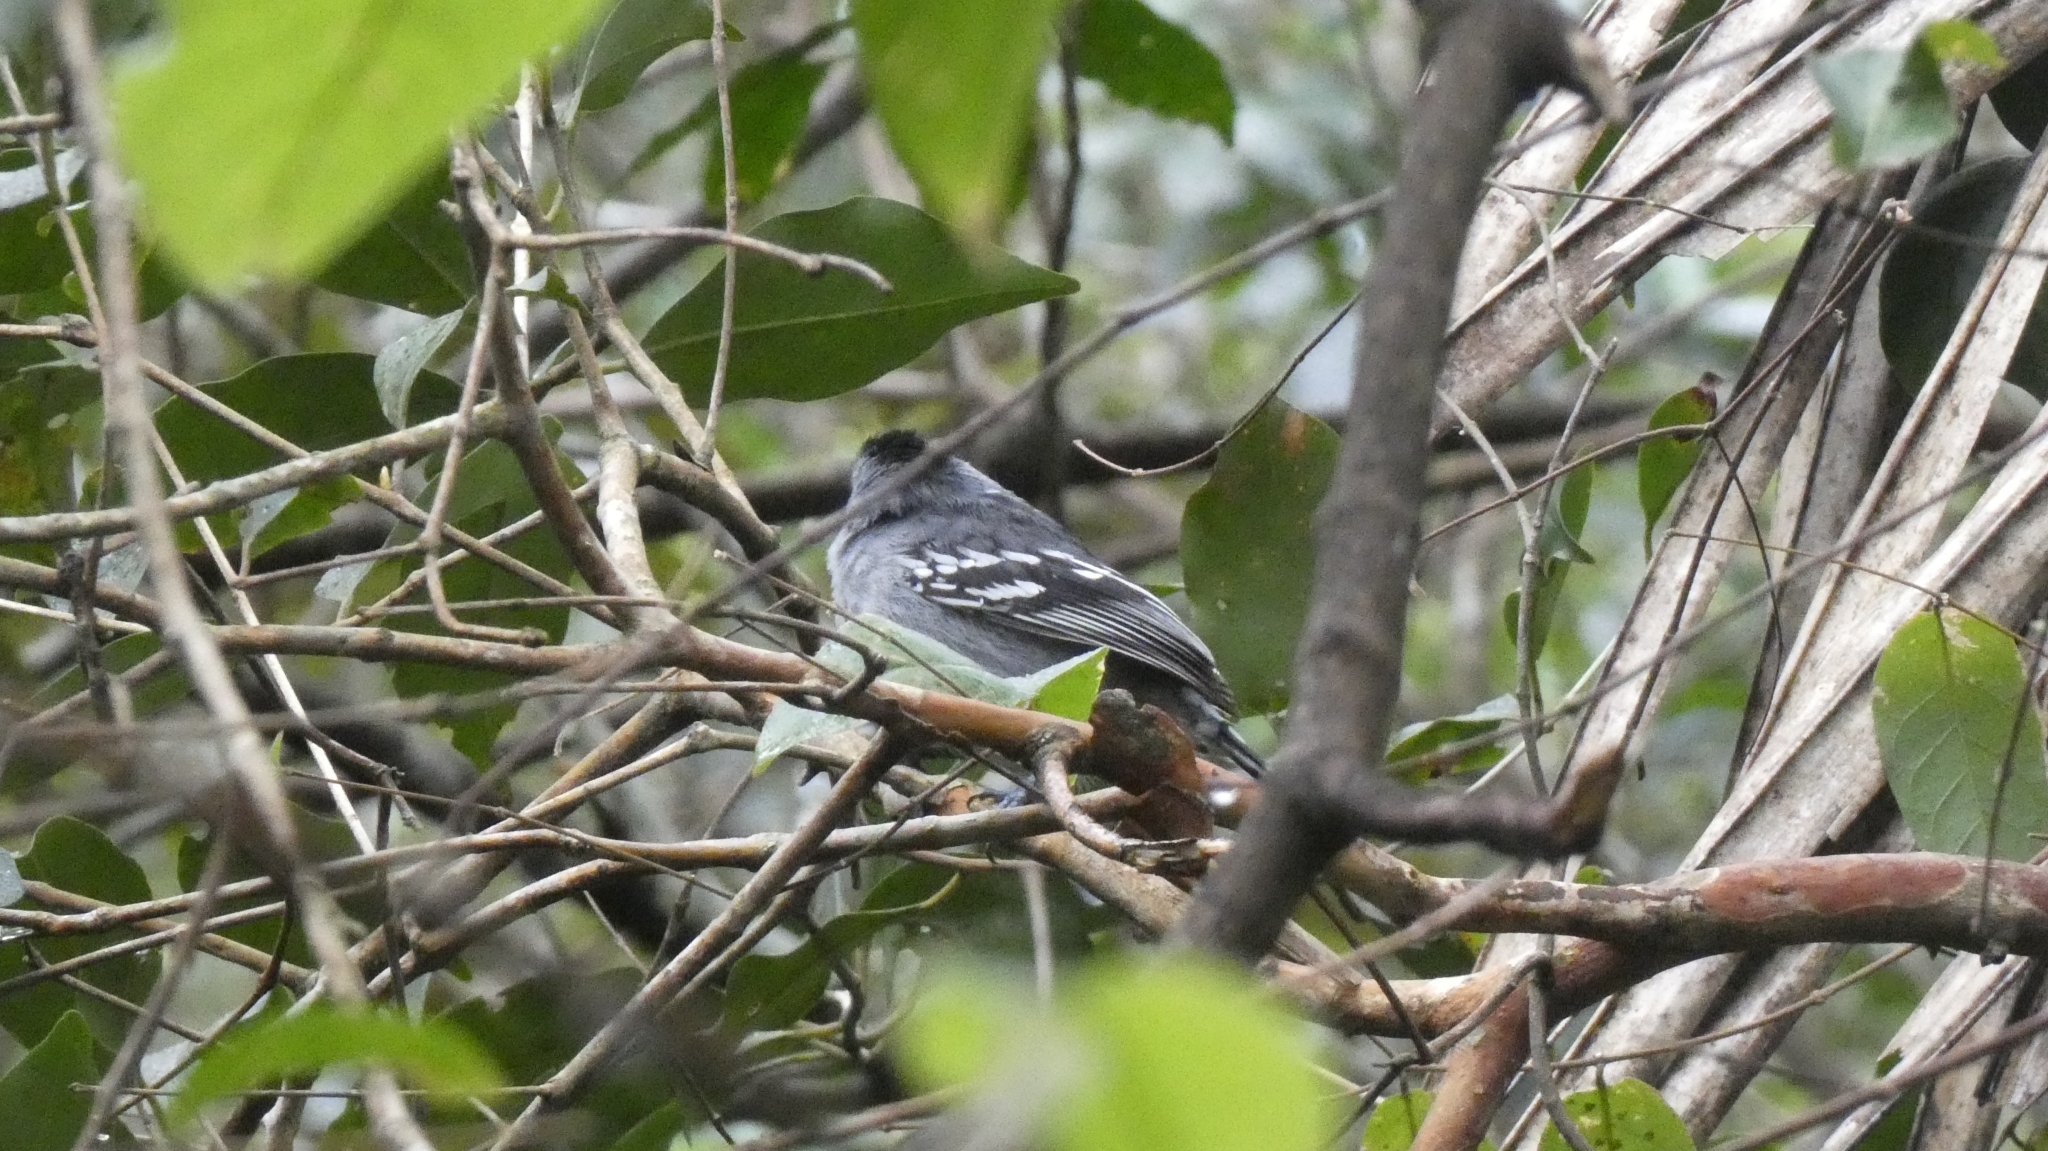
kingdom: Animalia
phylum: Chordata
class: Aves
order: Passeriformes
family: Thamnophilidae
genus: Thamnophilus
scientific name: Thamnophilus ambiguus
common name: Sooretama slaty antshrike
